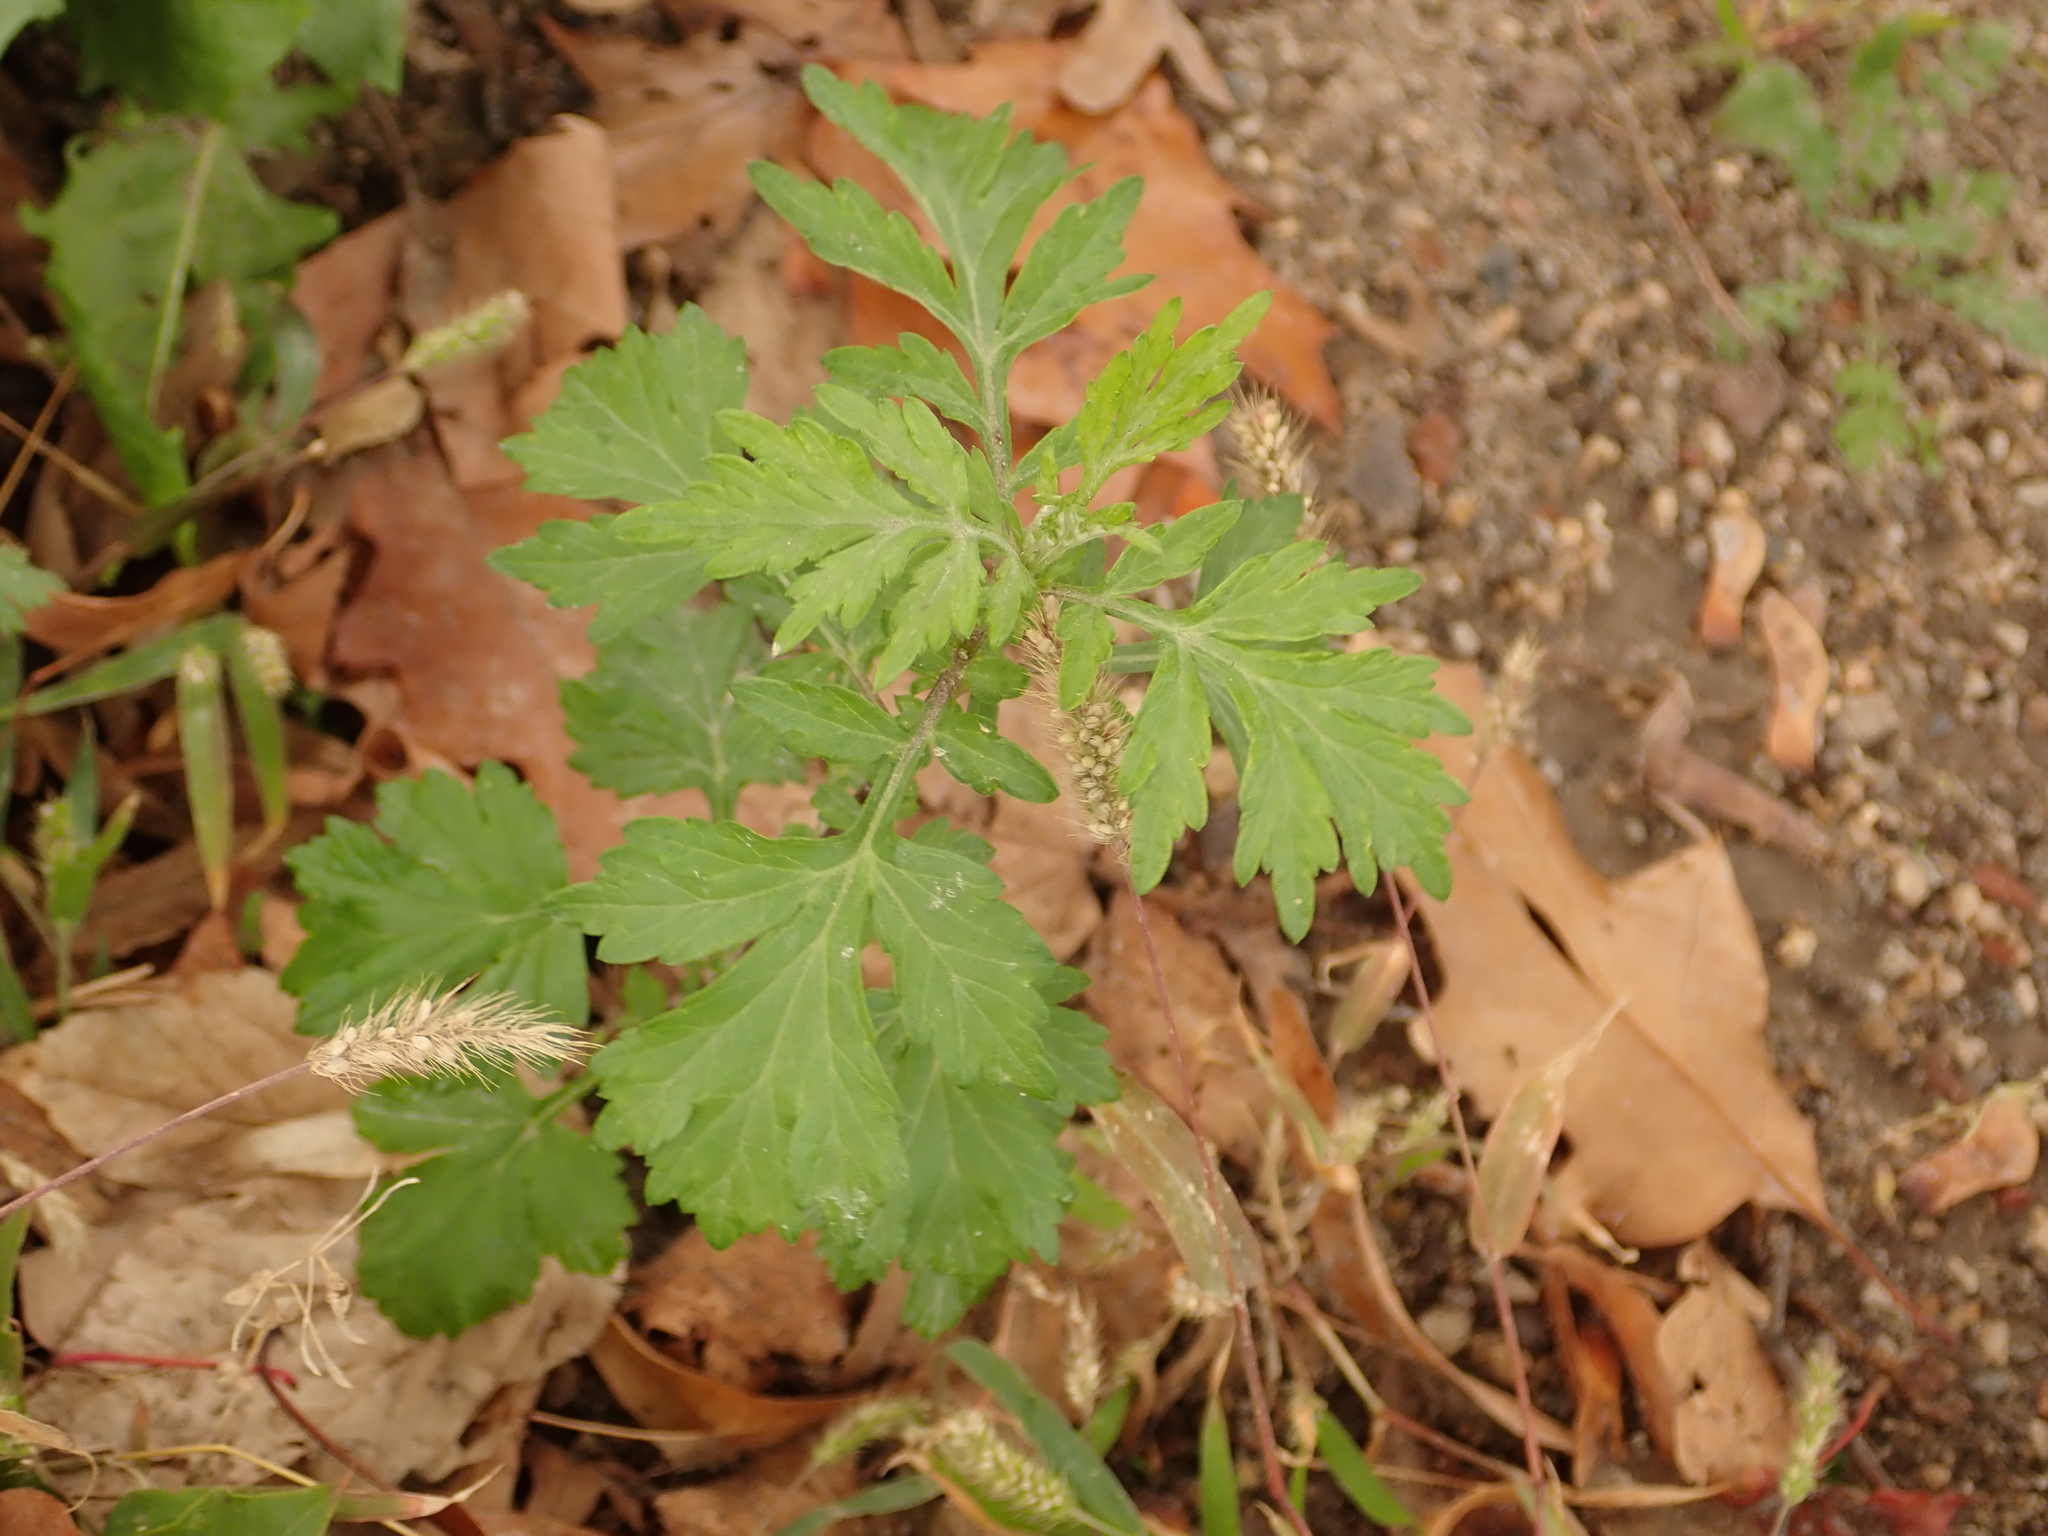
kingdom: Plantae
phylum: Tracheophyta
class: Magnoliopsida
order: Asterales
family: Asteraceae
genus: Artemisia
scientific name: Artemisia vulgaris
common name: Mugwort
